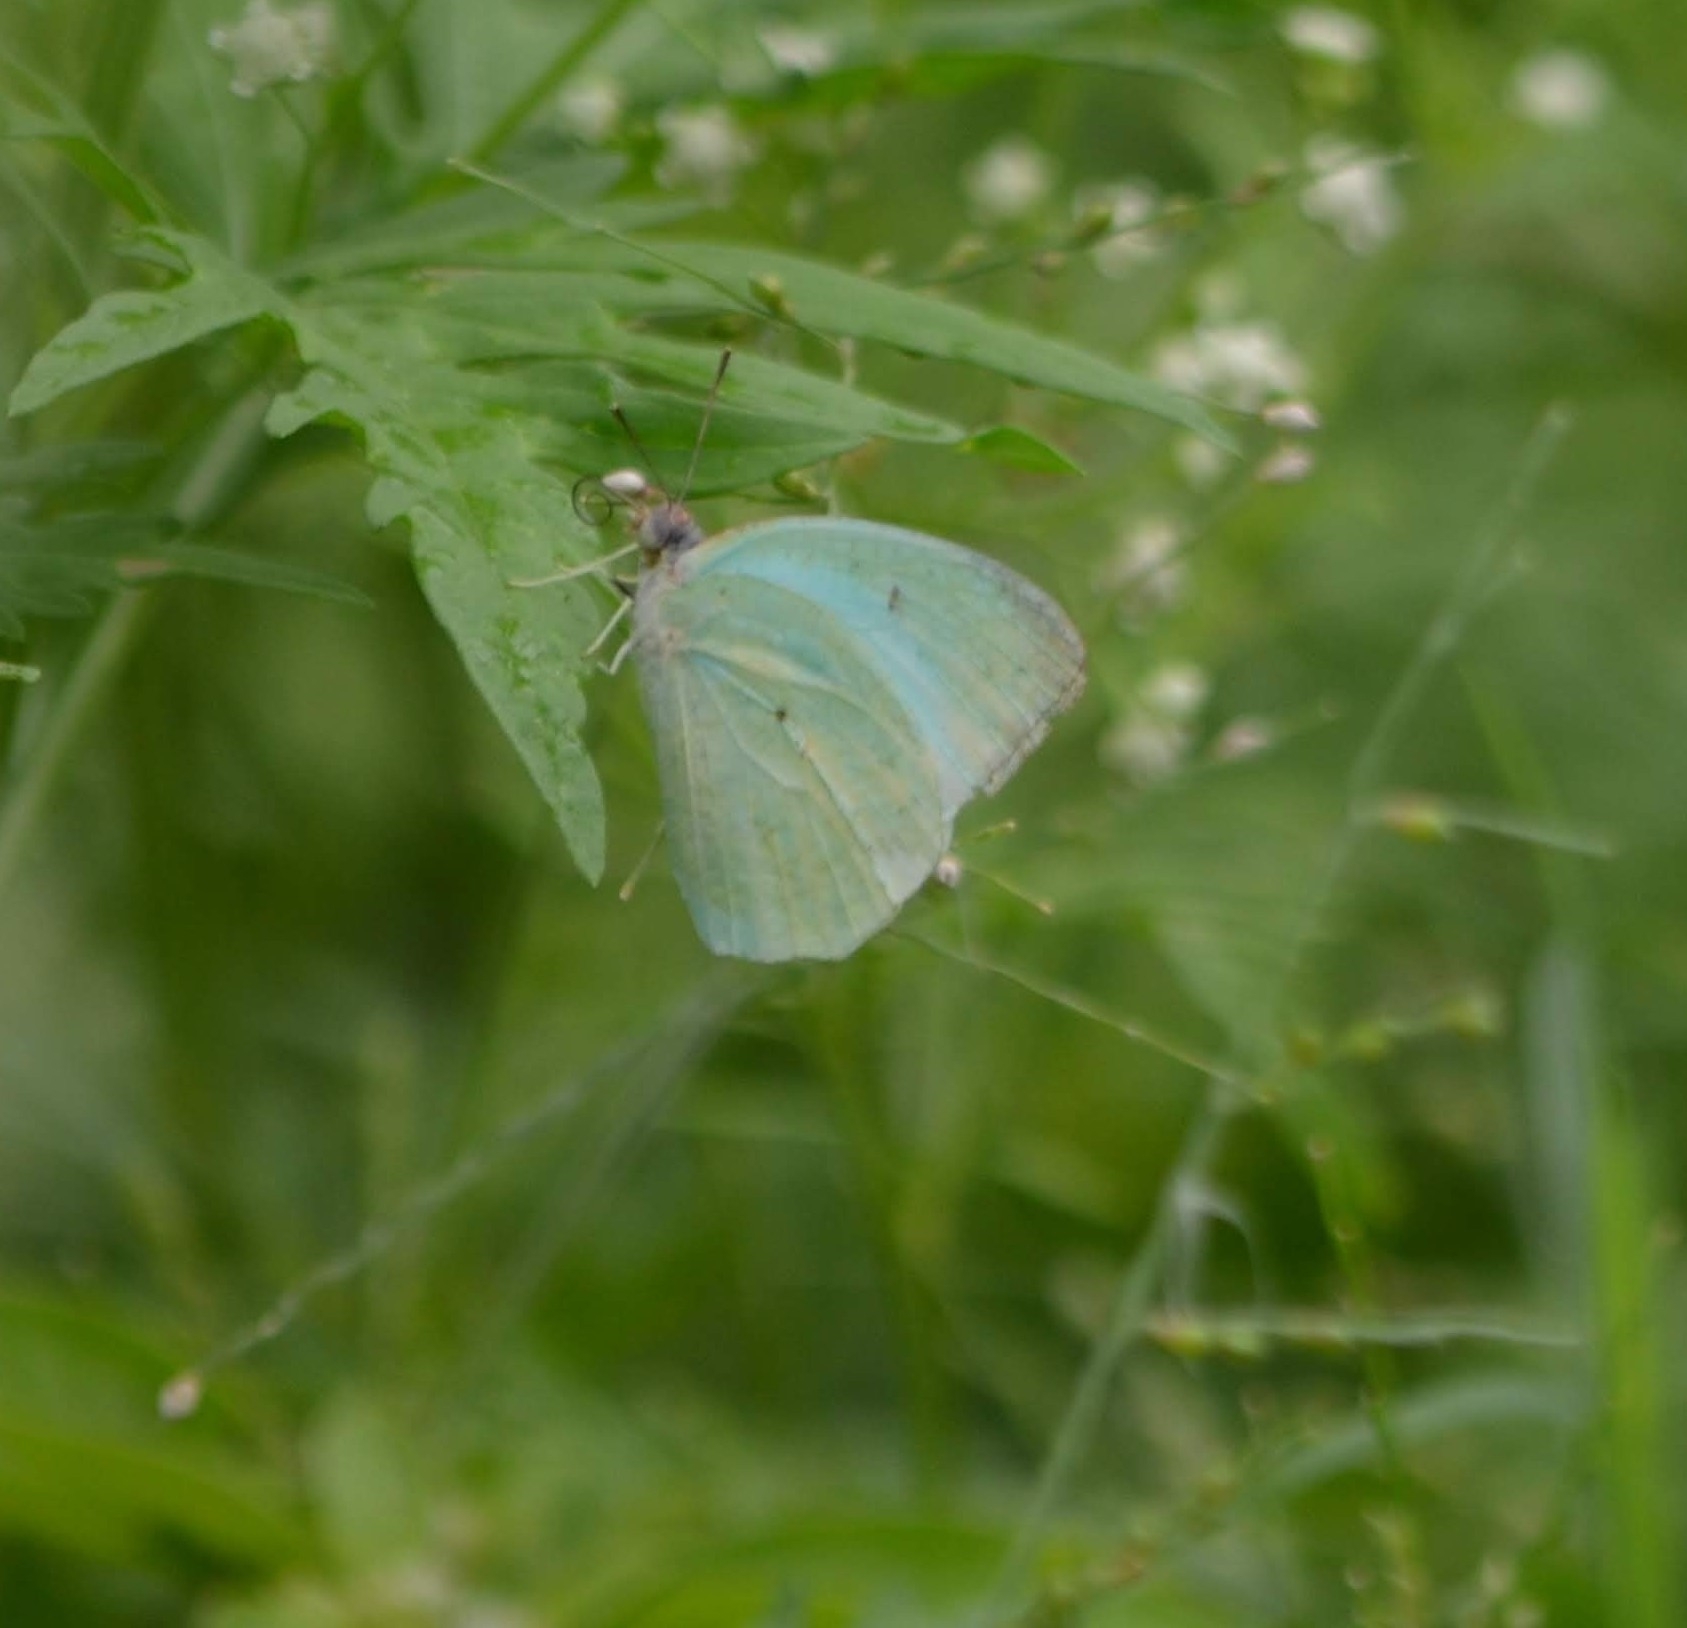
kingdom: Animalia
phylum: Arthropoda
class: Insecta
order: Lepidoptera
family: Pieridae
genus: Catopsilia
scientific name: Catopsilia pyranthe
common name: Mottled emigrant
